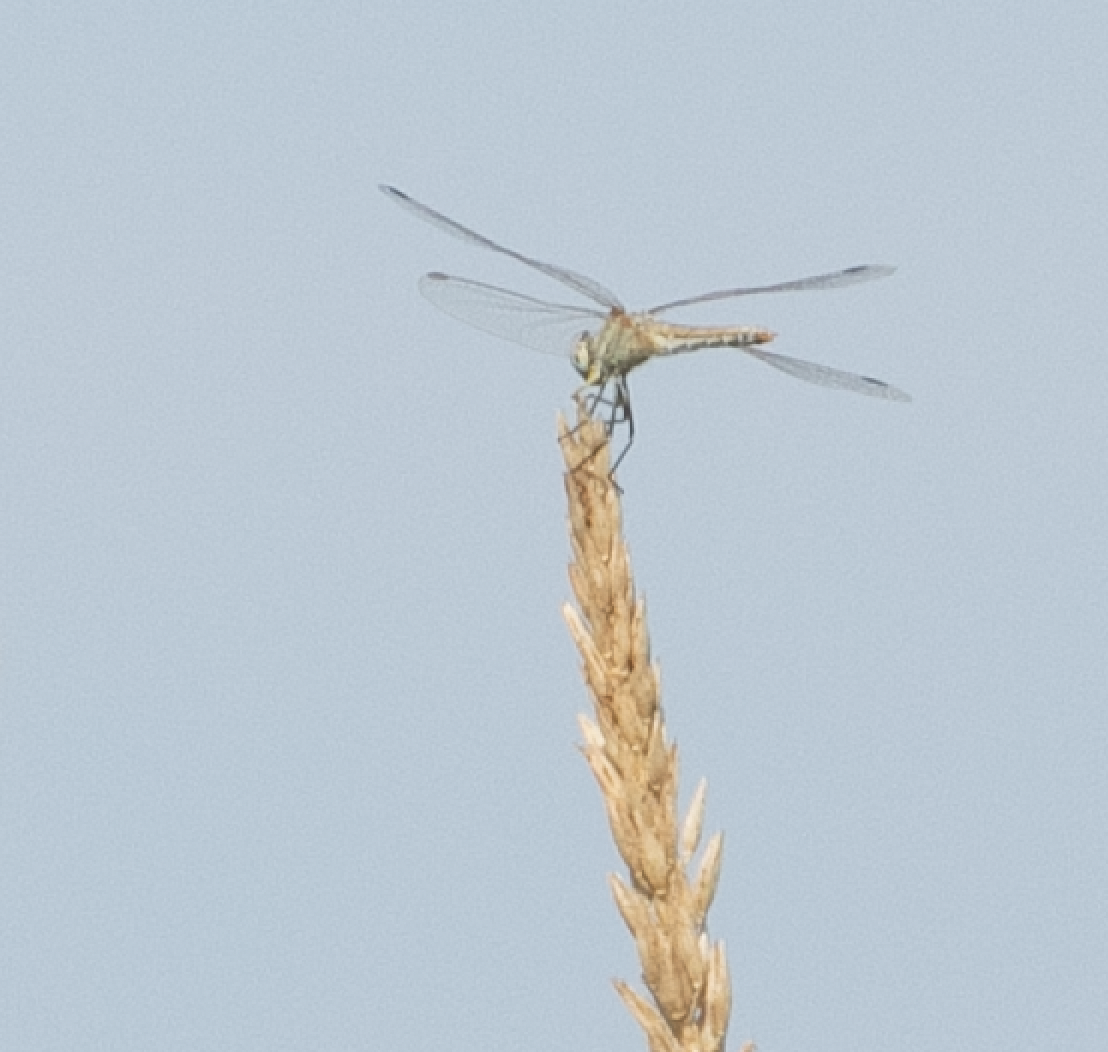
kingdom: Animalia
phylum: Arthropoda
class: Insecta
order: Odonata
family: Libellulidae
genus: Sympetrum
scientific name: Sympetrum fonscolombii
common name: Red-veined darter
